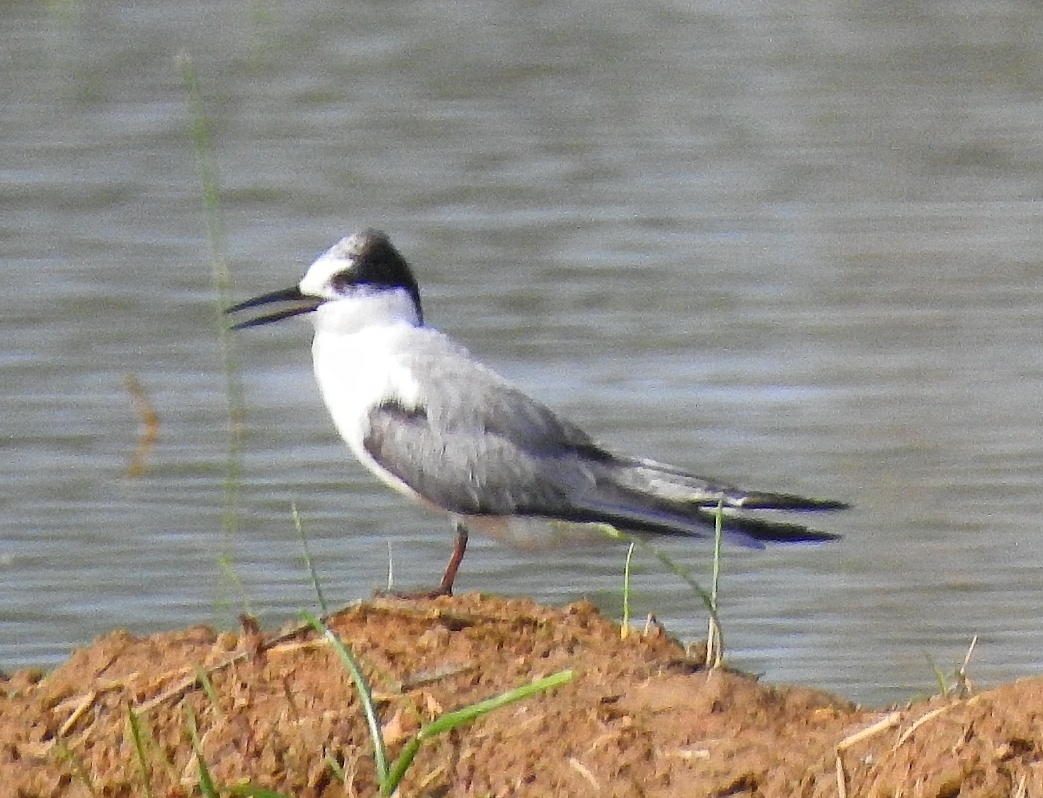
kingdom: Animalia
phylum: Chordata
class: Aves
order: Charadriiformes
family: Laridae
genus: Sternula
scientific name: Sternula albifrons
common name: Little tern
